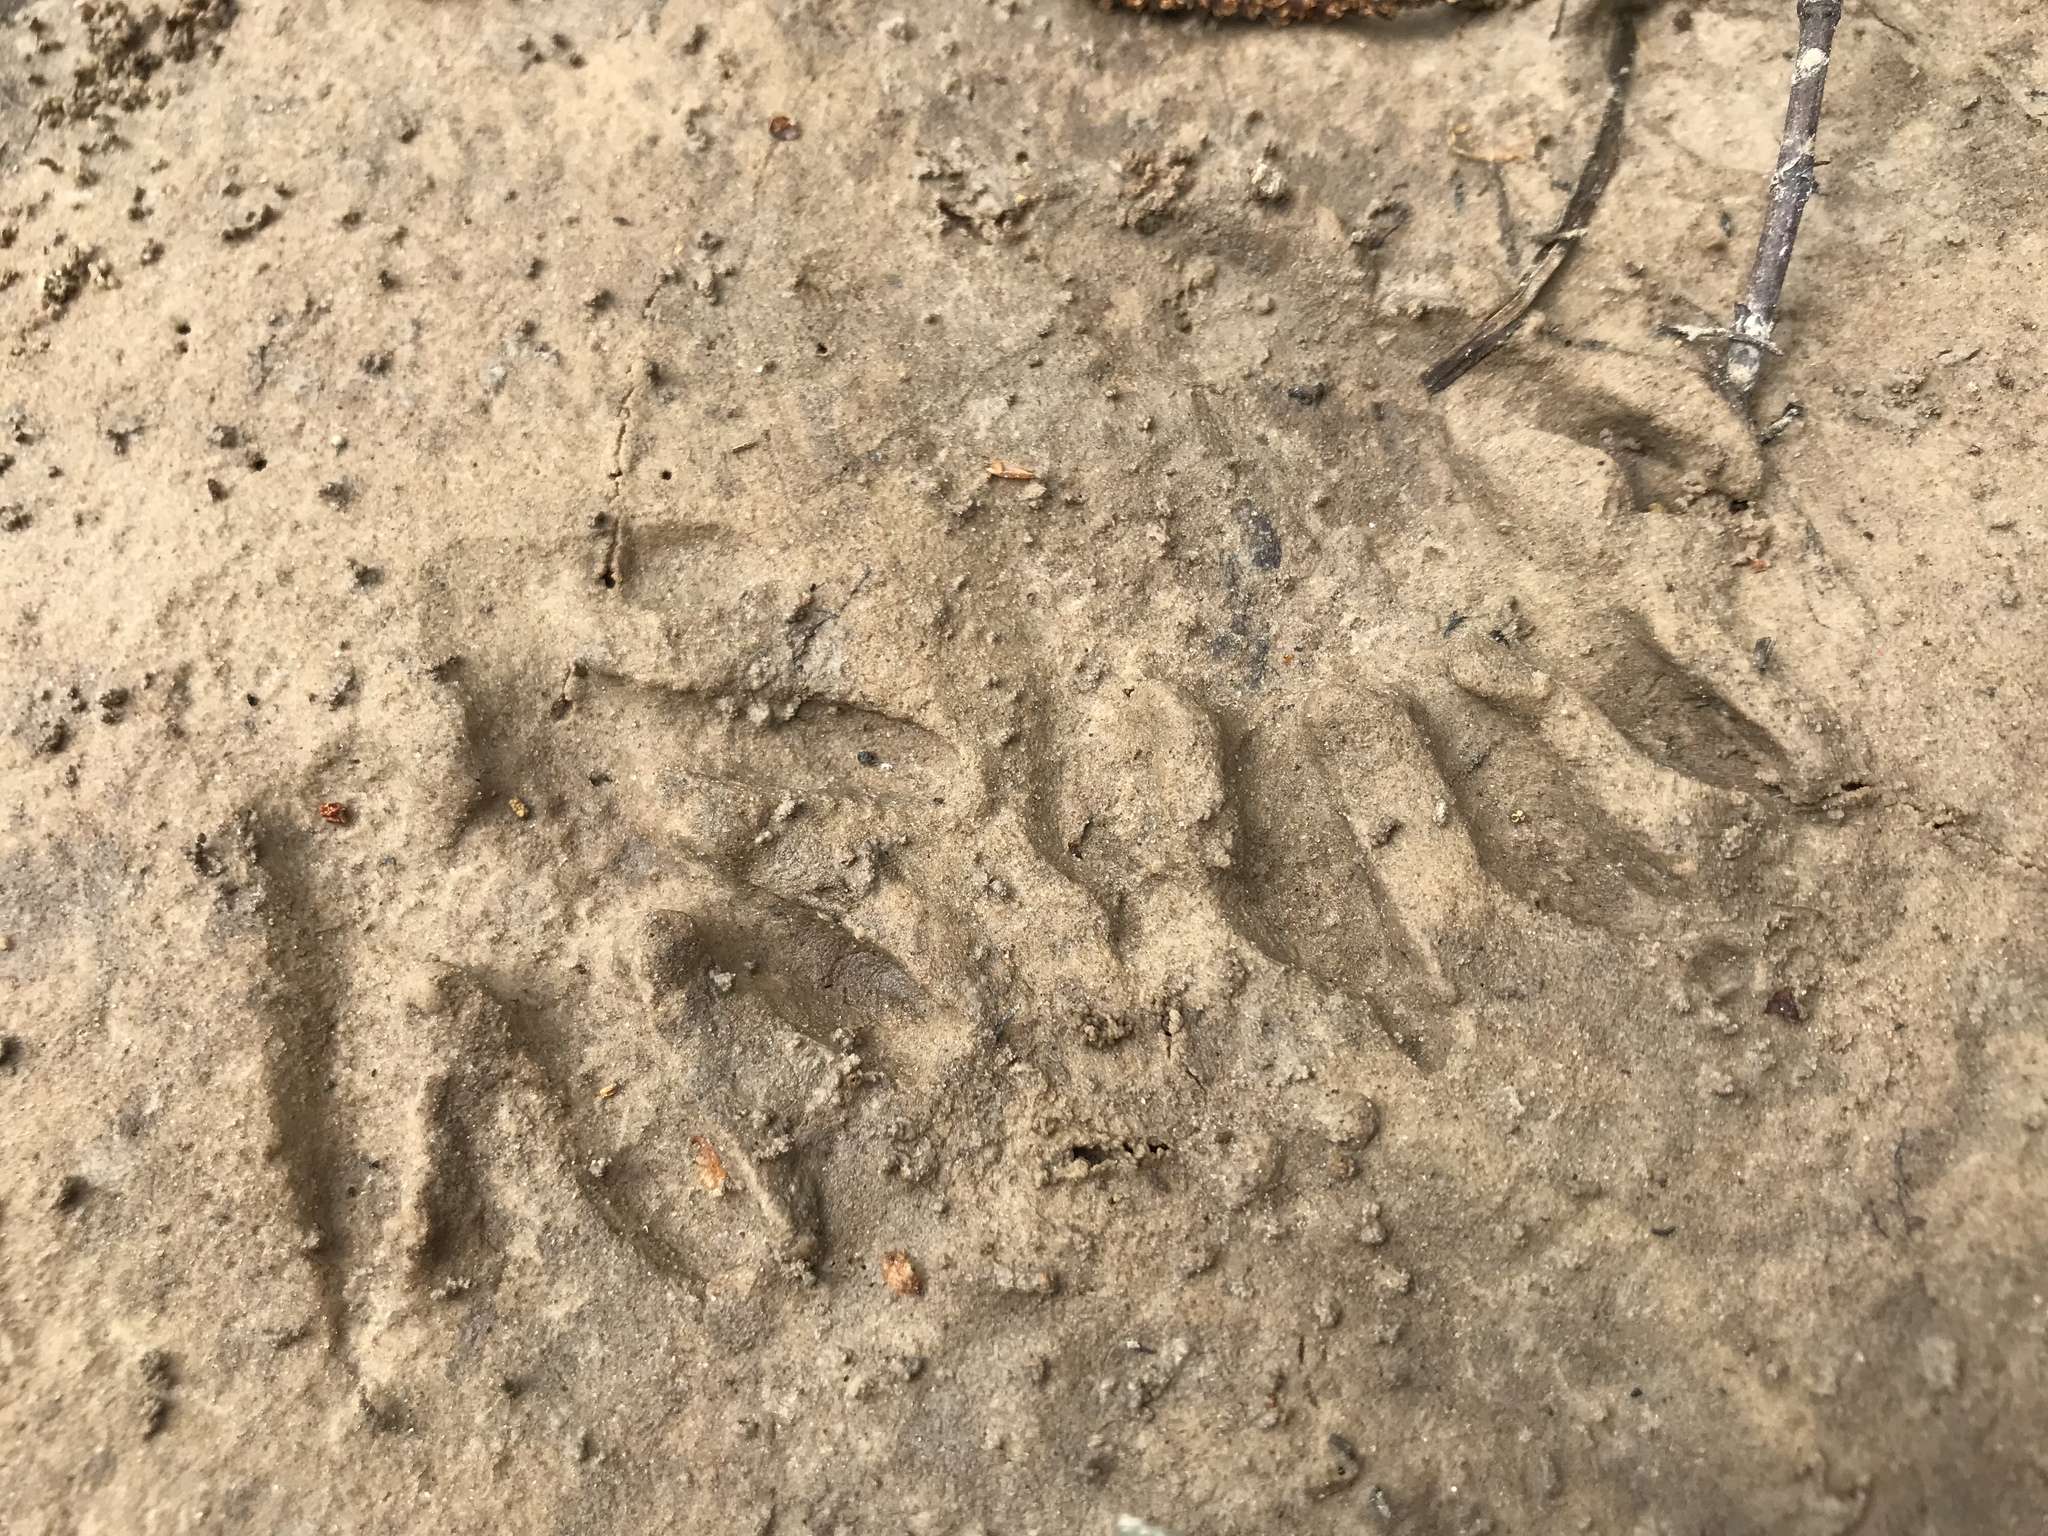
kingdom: Animalia
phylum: Chordata
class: Mammalia
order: Carnivora
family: Procyonidae
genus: Procyon
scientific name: Procyon lotor
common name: Raccoon
